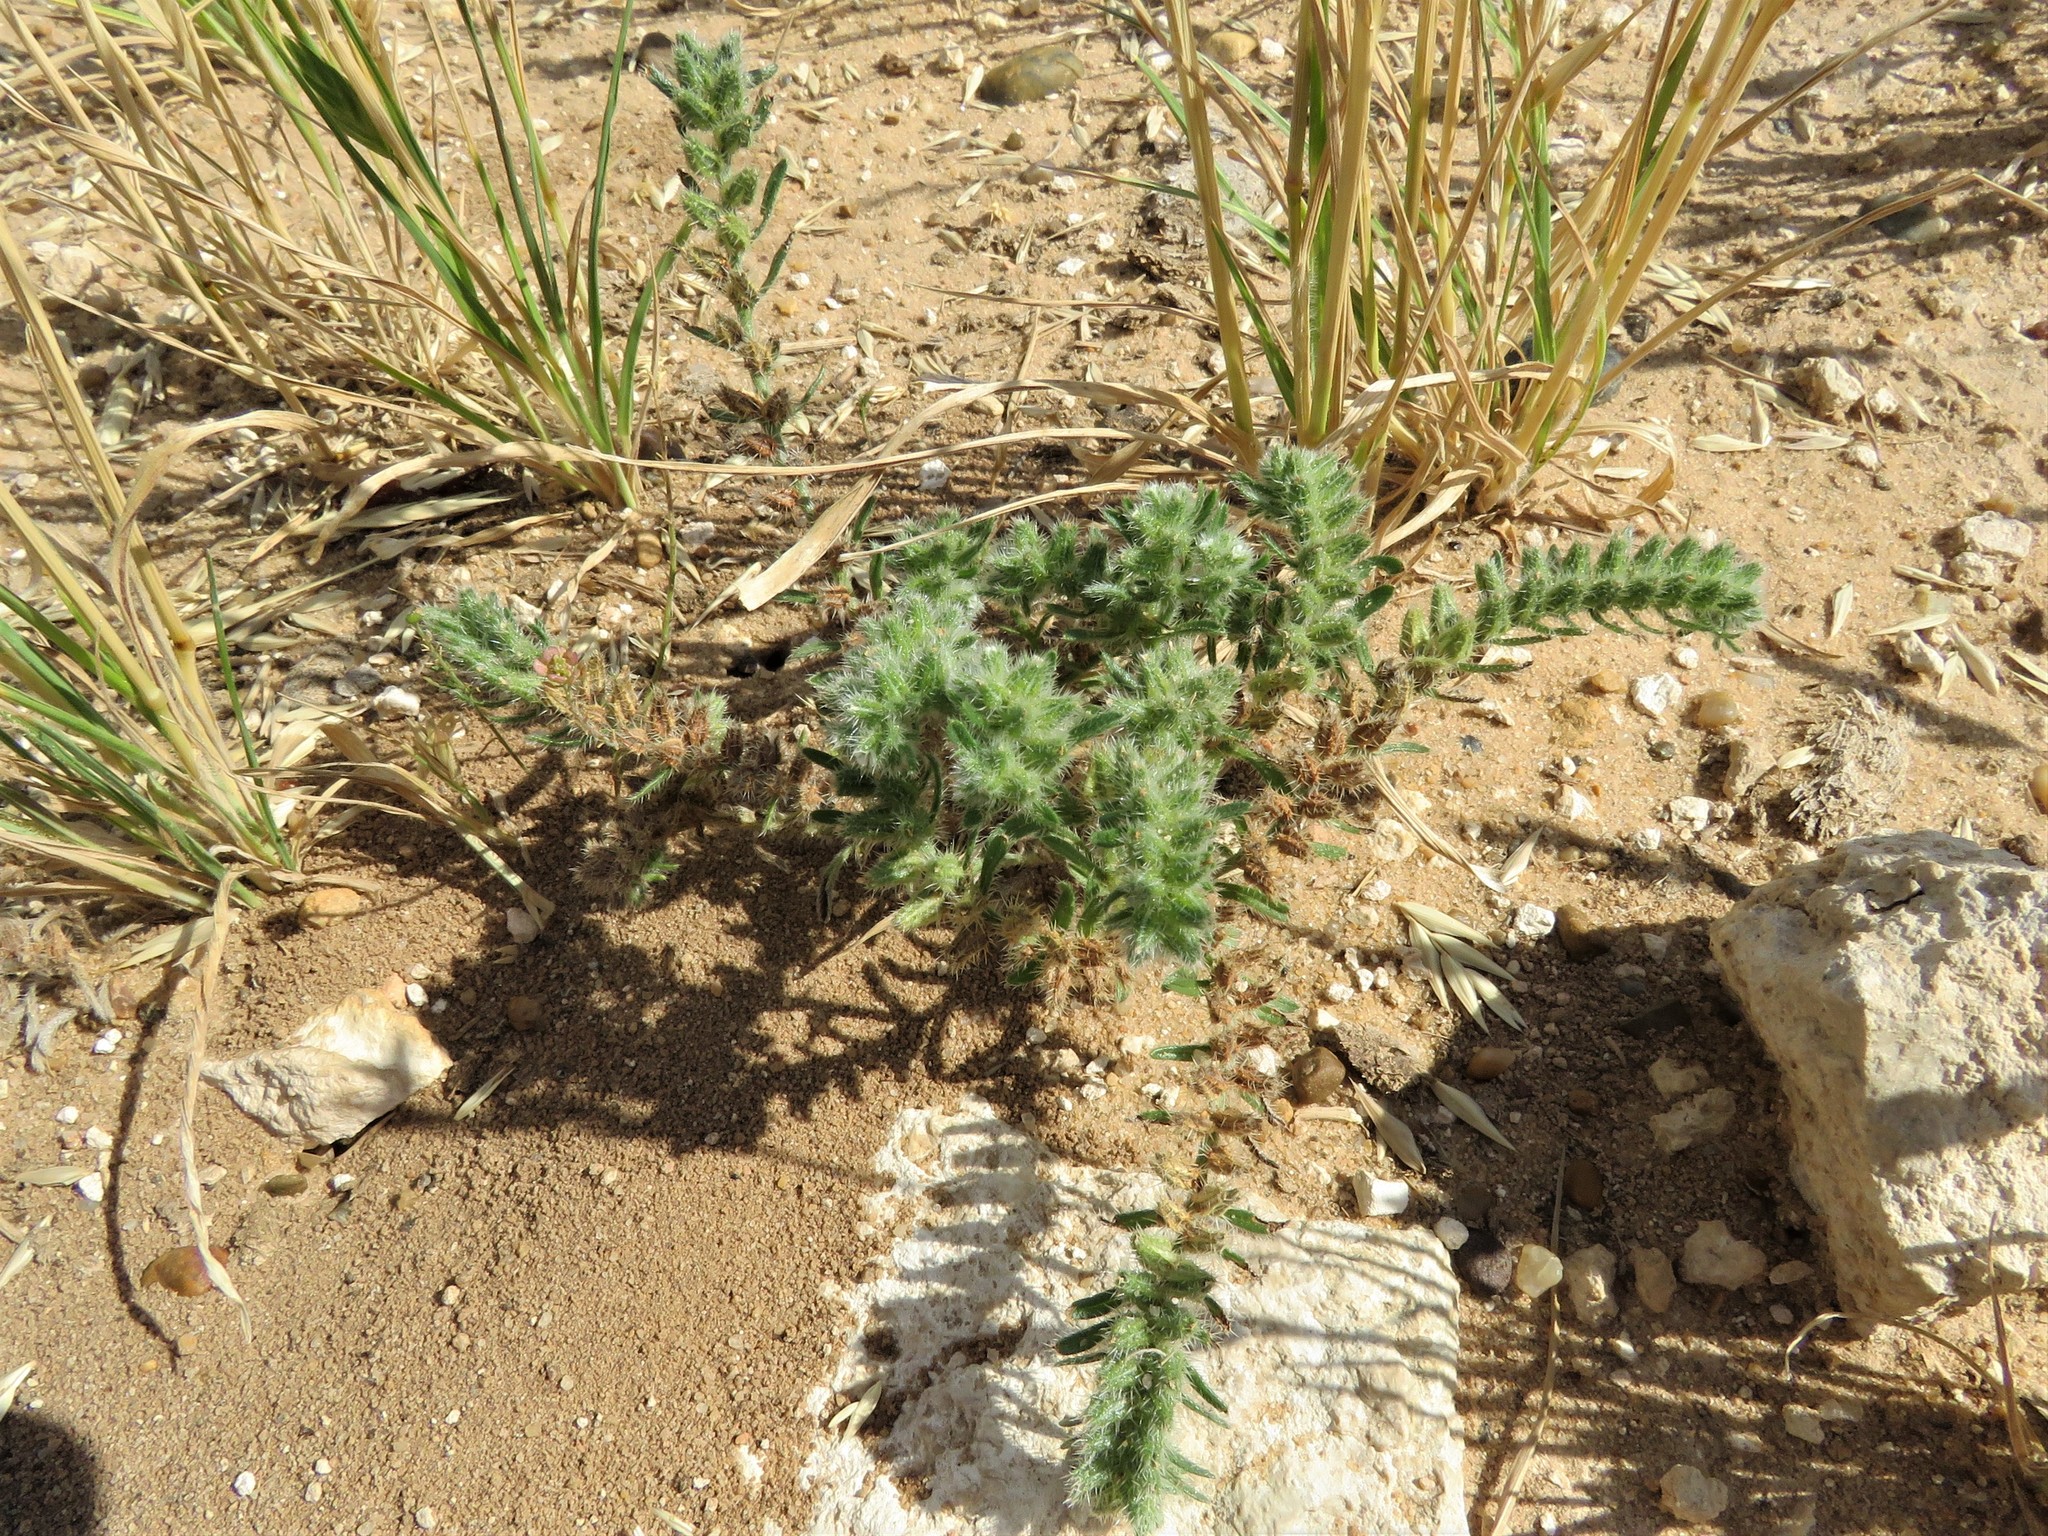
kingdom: Plantae
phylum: Tracheophyta
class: Magnoliopsida
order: Boraginales
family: Boraginaceae
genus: Cryptantha
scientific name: Cryptantha minima
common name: Little cat's-eye
